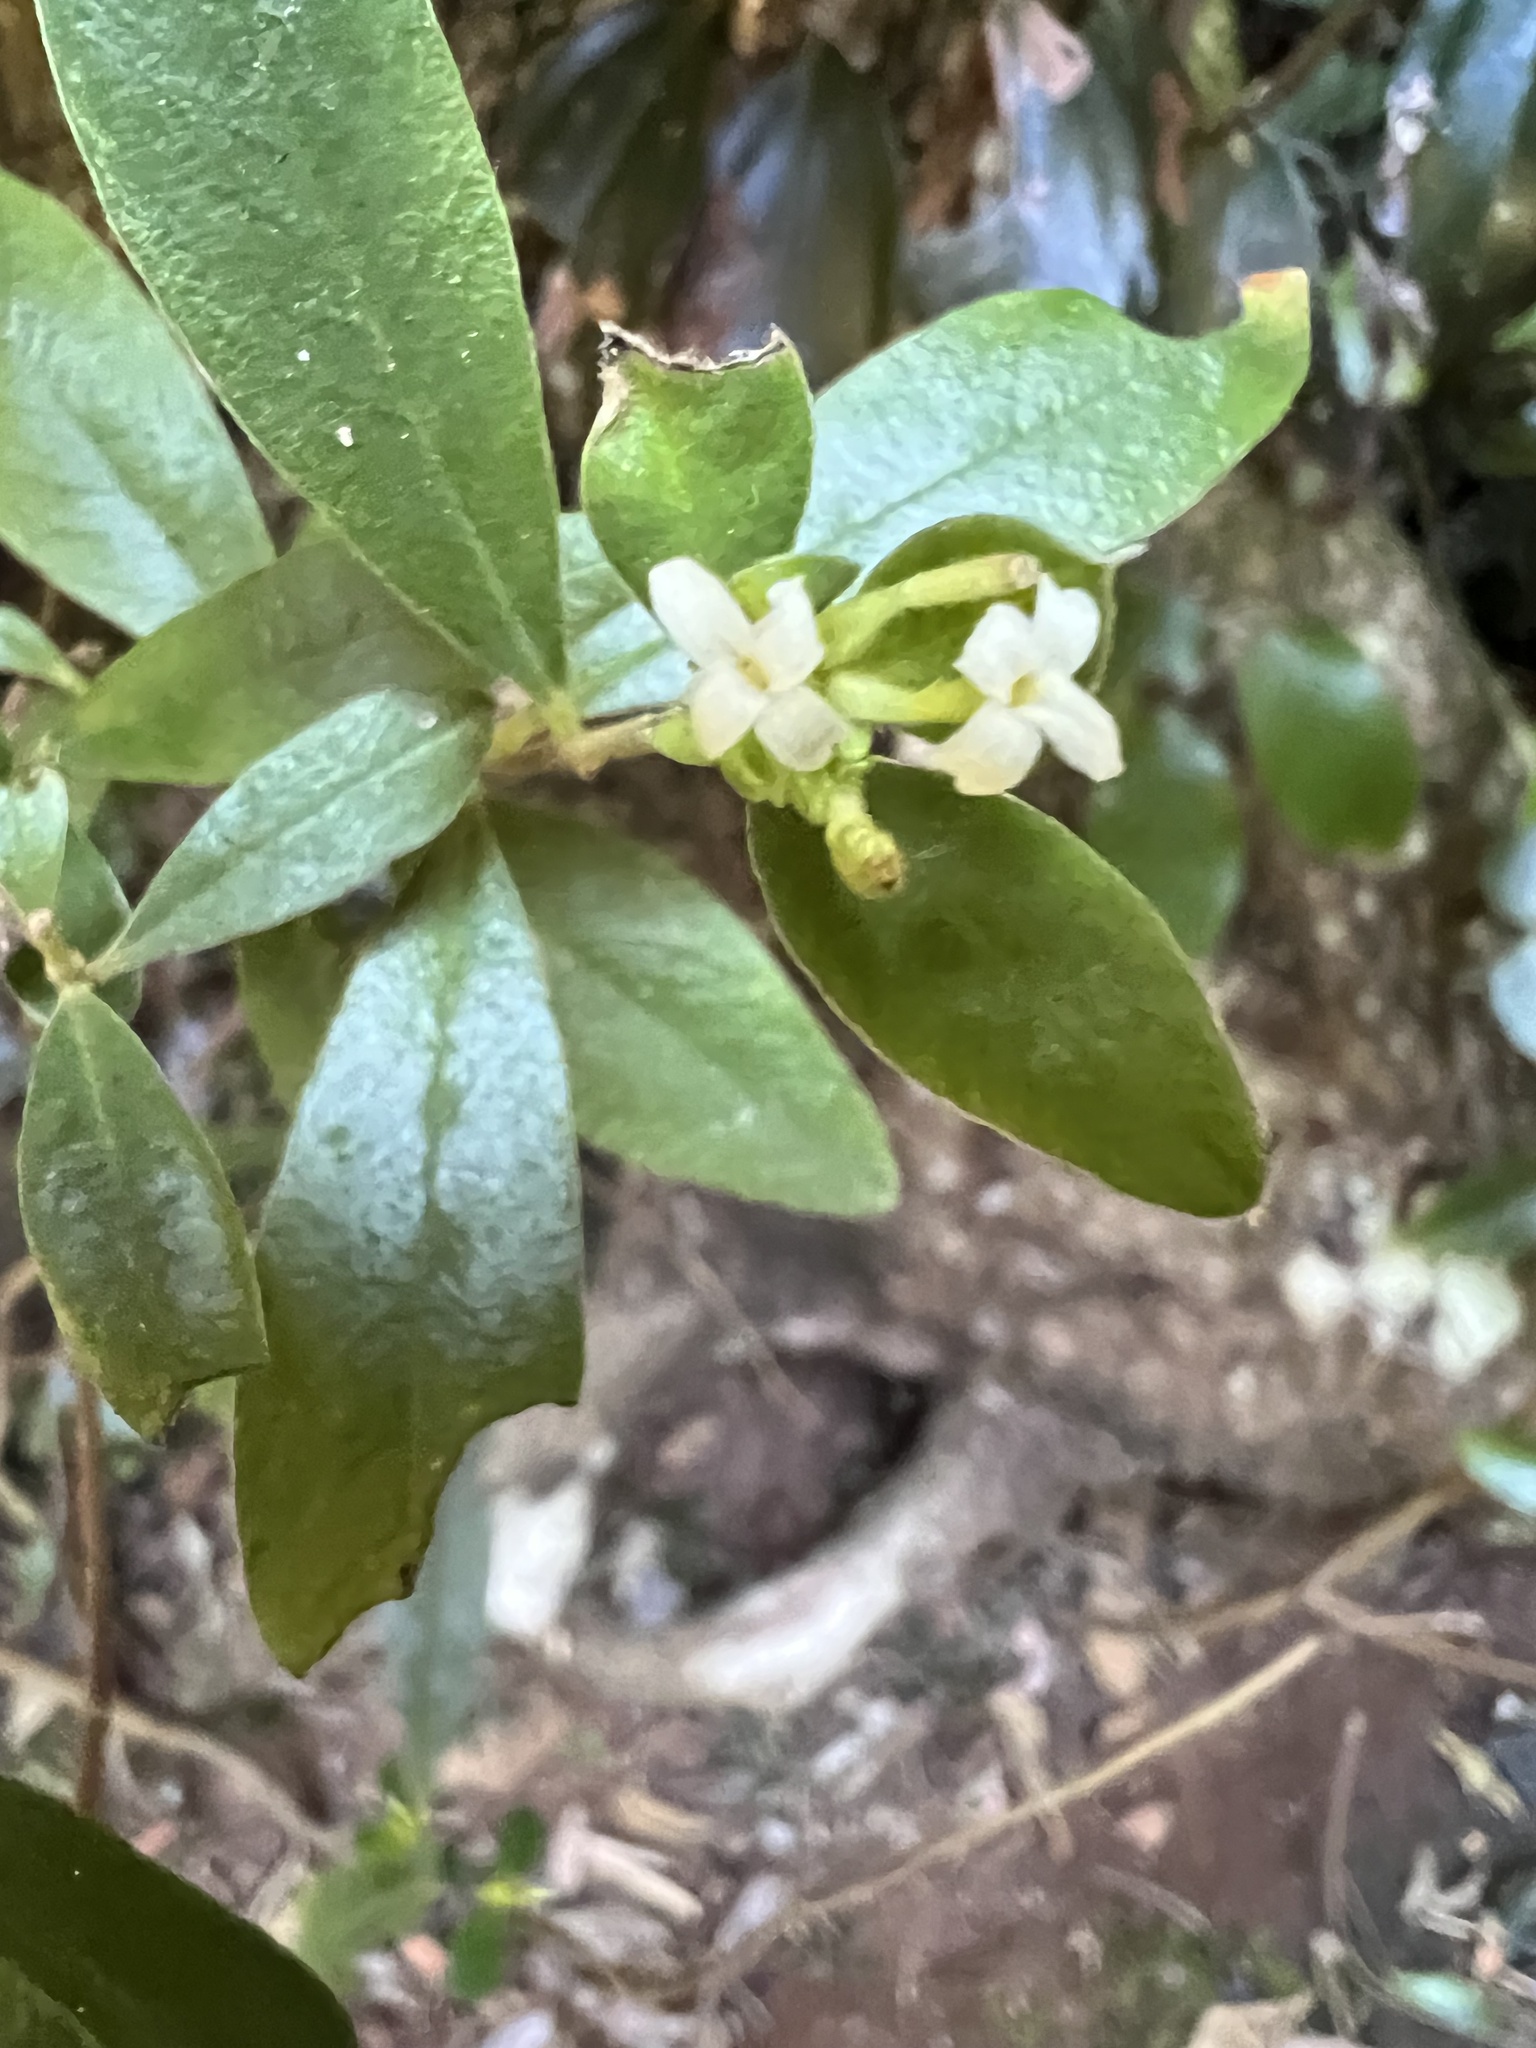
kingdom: Plantae
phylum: Tracheophyta
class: Magnoliopsida
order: Malvales
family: Thymelaeaceae
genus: Pimelea
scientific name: Pimelea gigandra
